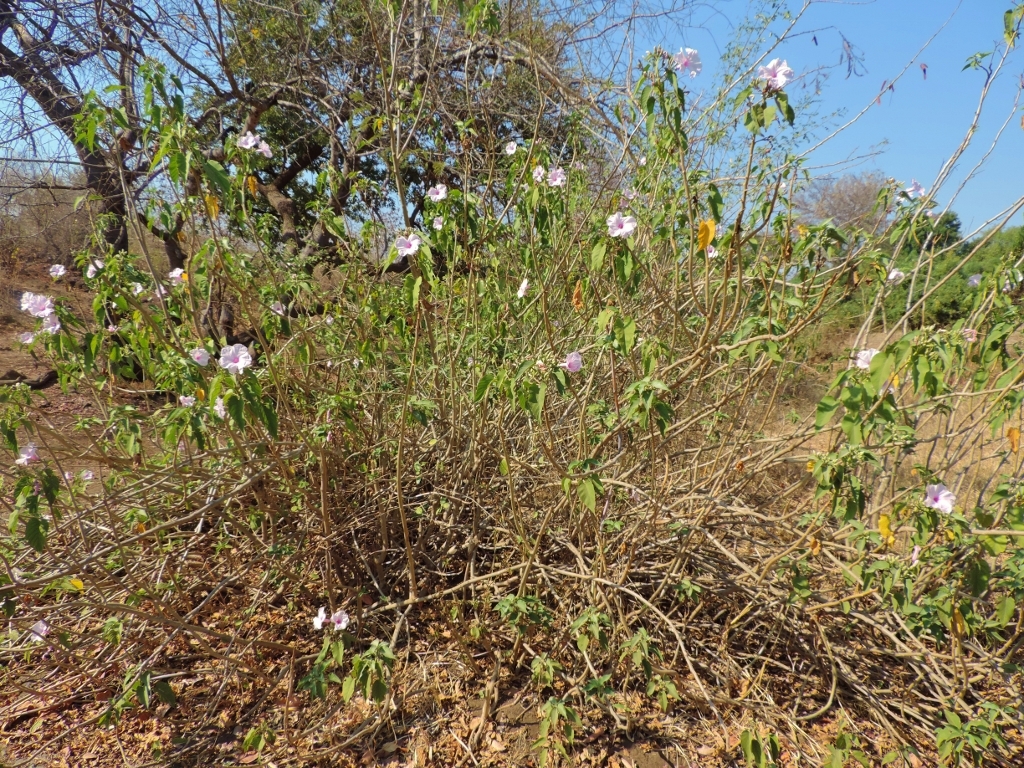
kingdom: Plantae
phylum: Tracheophyta
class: Magnoliopsida
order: Solanales
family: Convolvulaceae
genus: Ipomoea
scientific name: Ipomoea carnea
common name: Morning-glory
